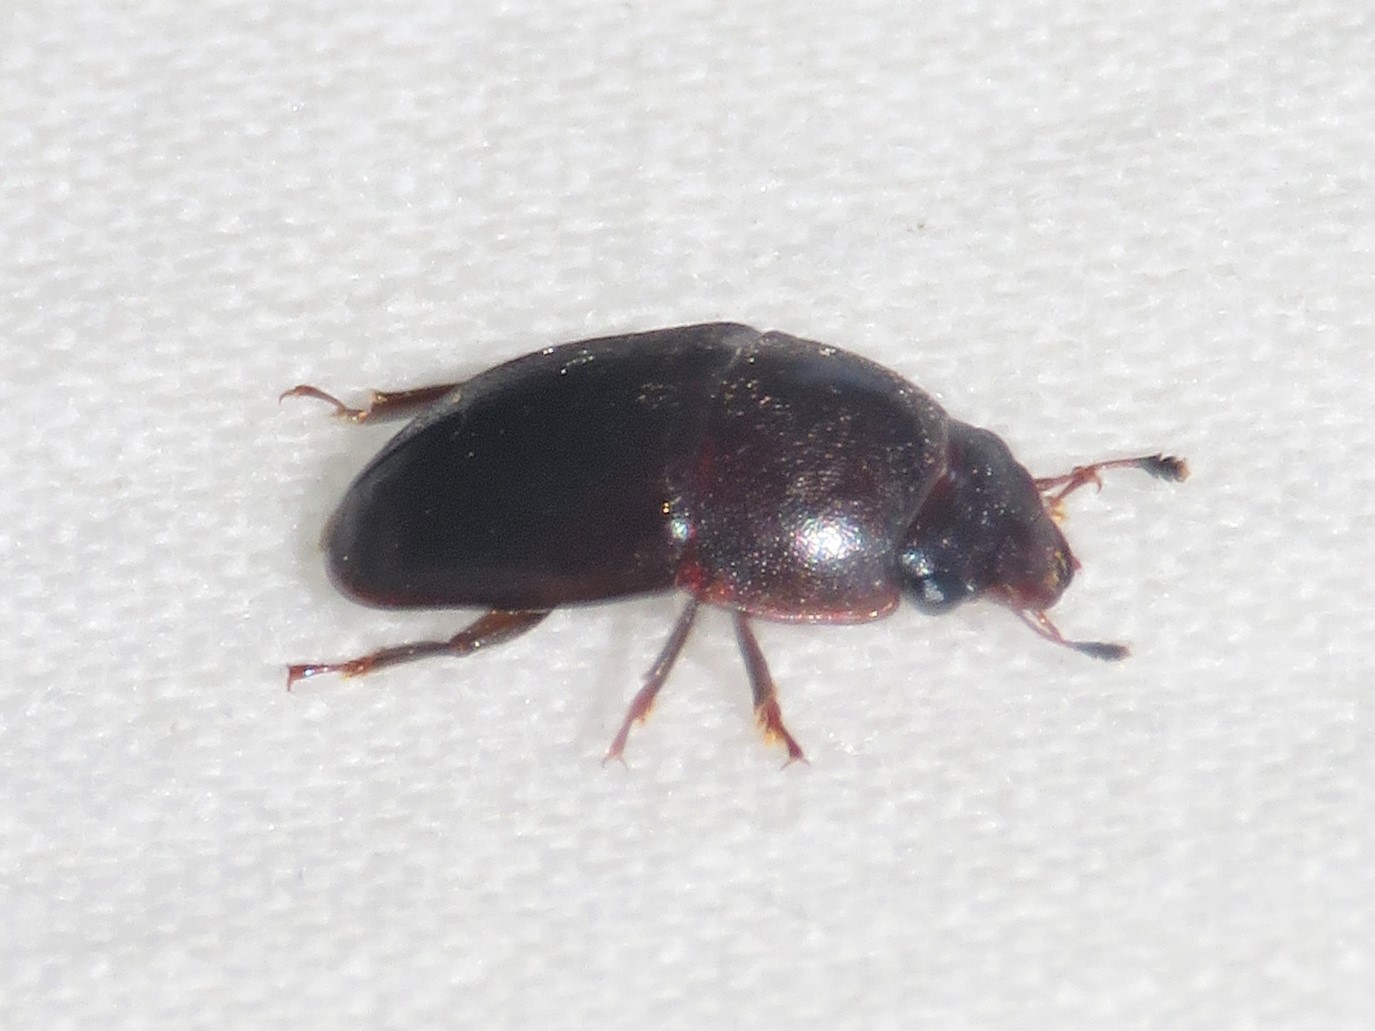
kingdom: Animalia
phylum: Arthropoda
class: Insecta
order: Coleoptera
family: Nitidulidae
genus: Cryptarcha
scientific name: Cryptarcha ampla
